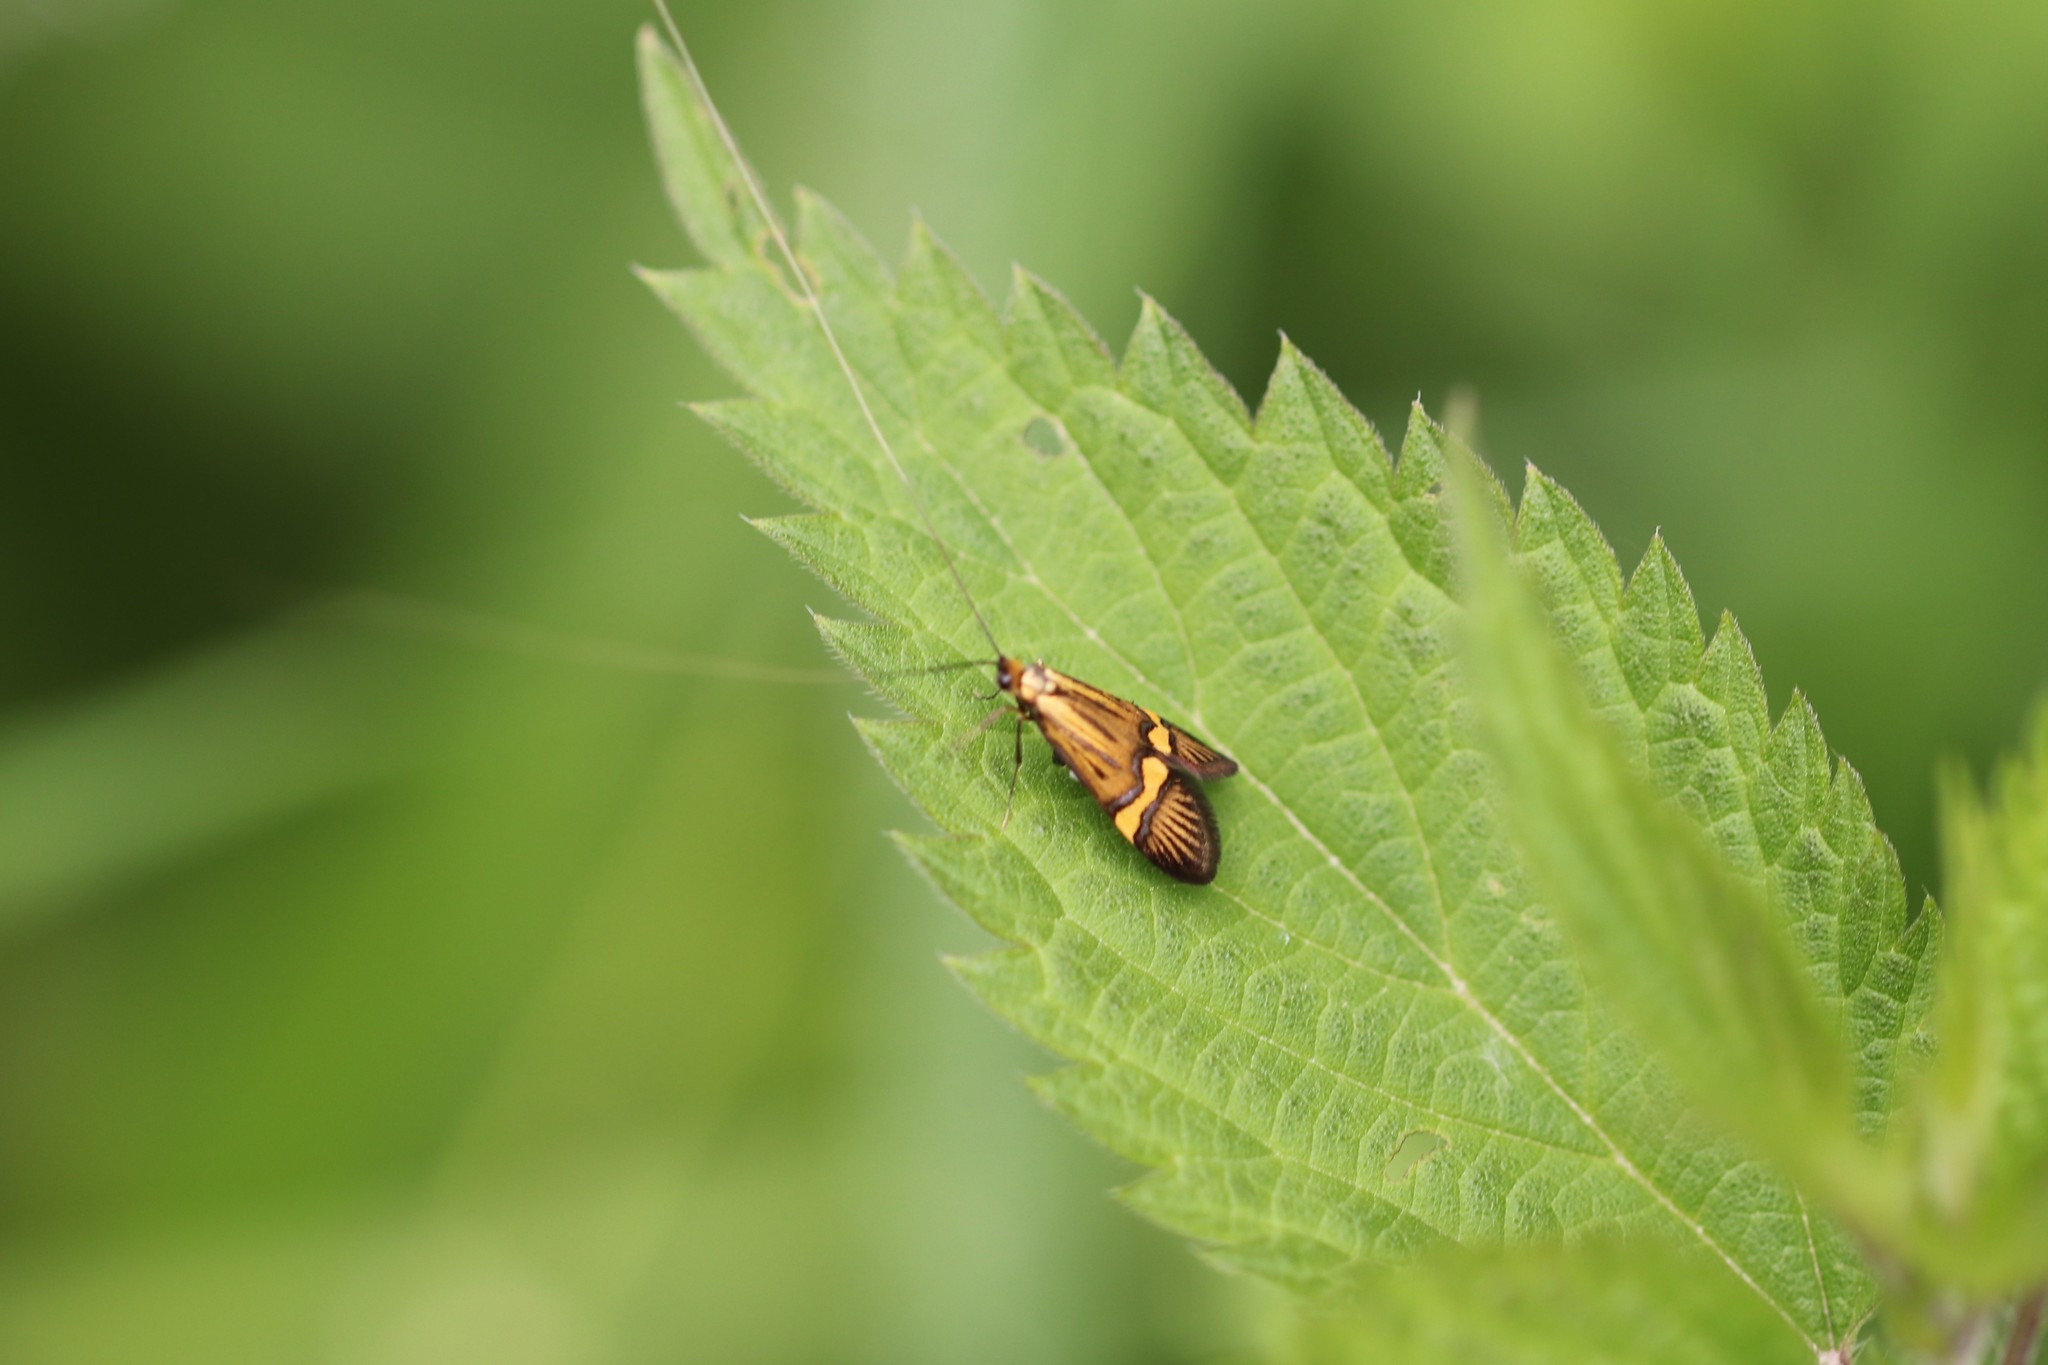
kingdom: Animalia
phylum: Arthropoda
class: Insecta
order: Lepidoptera
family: Adelidae
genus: Nemophora
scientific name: Nemophora
